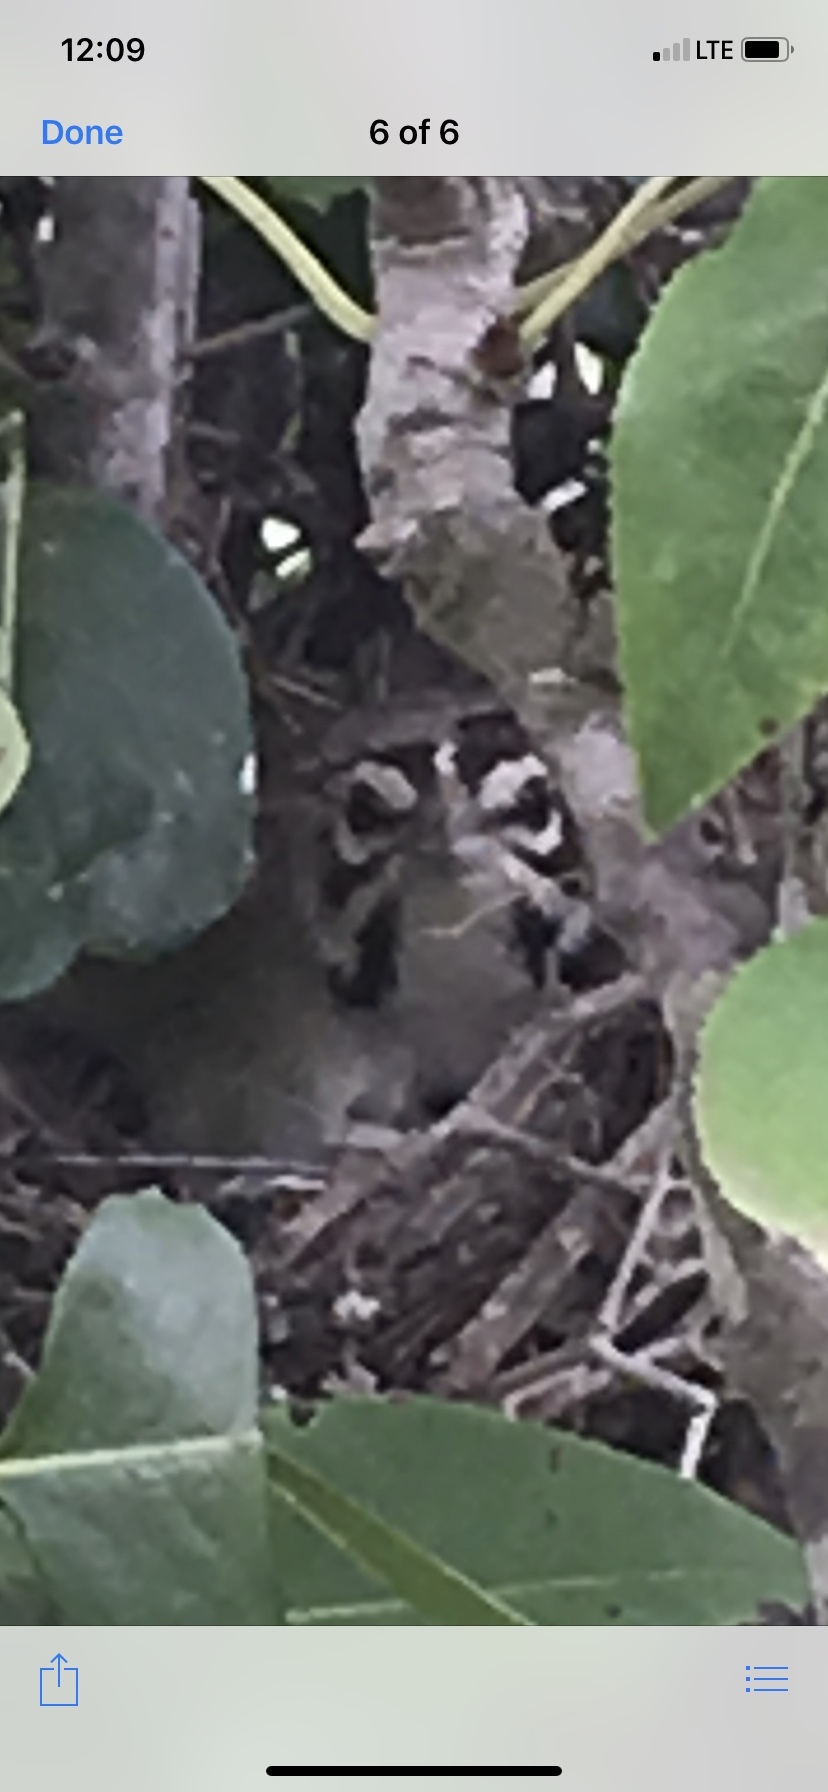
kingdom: Animalia
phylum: Chordata
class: Aves
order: Passeriformes
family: Passerellidae
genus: Chondestes
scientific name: Chondestes grammacus
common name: Lark sparrow
